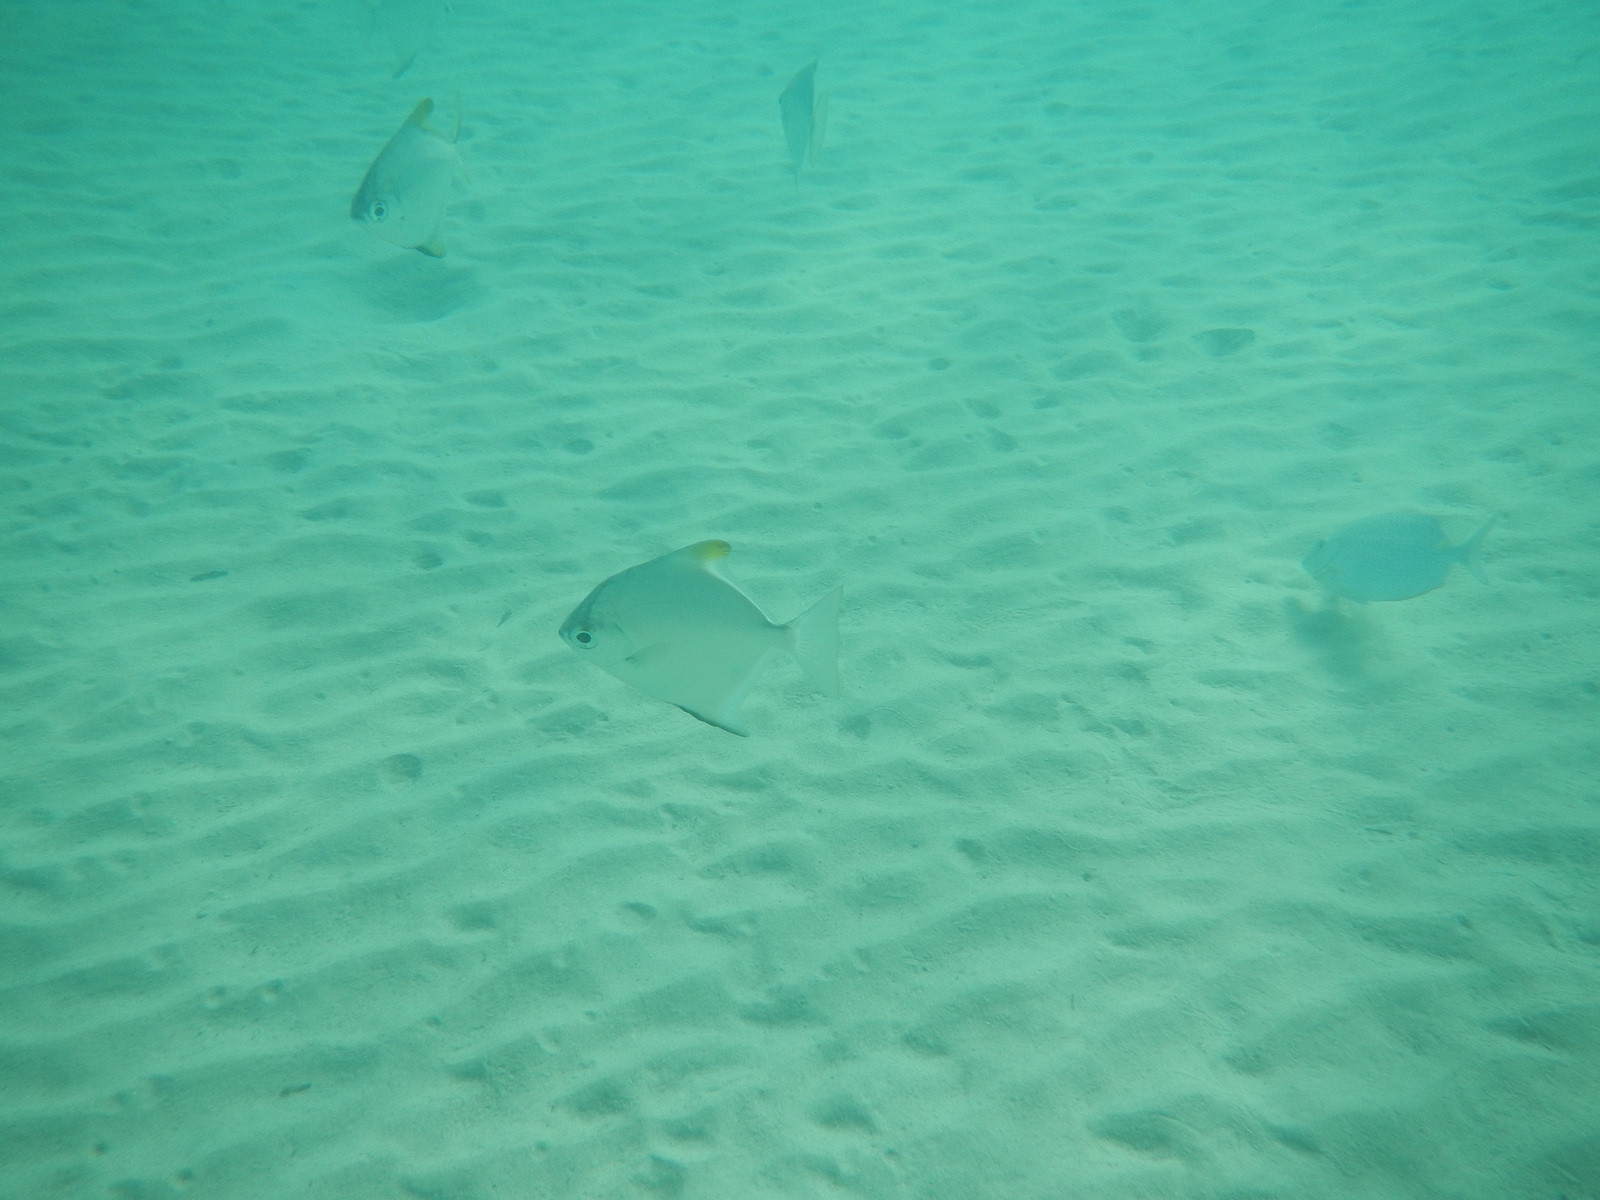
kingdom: Animalia
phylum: Chordata
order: Perciformes
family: Monodactylidae
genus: Monodactylus
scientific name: Monodactylus argenteus
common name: Silver moony
